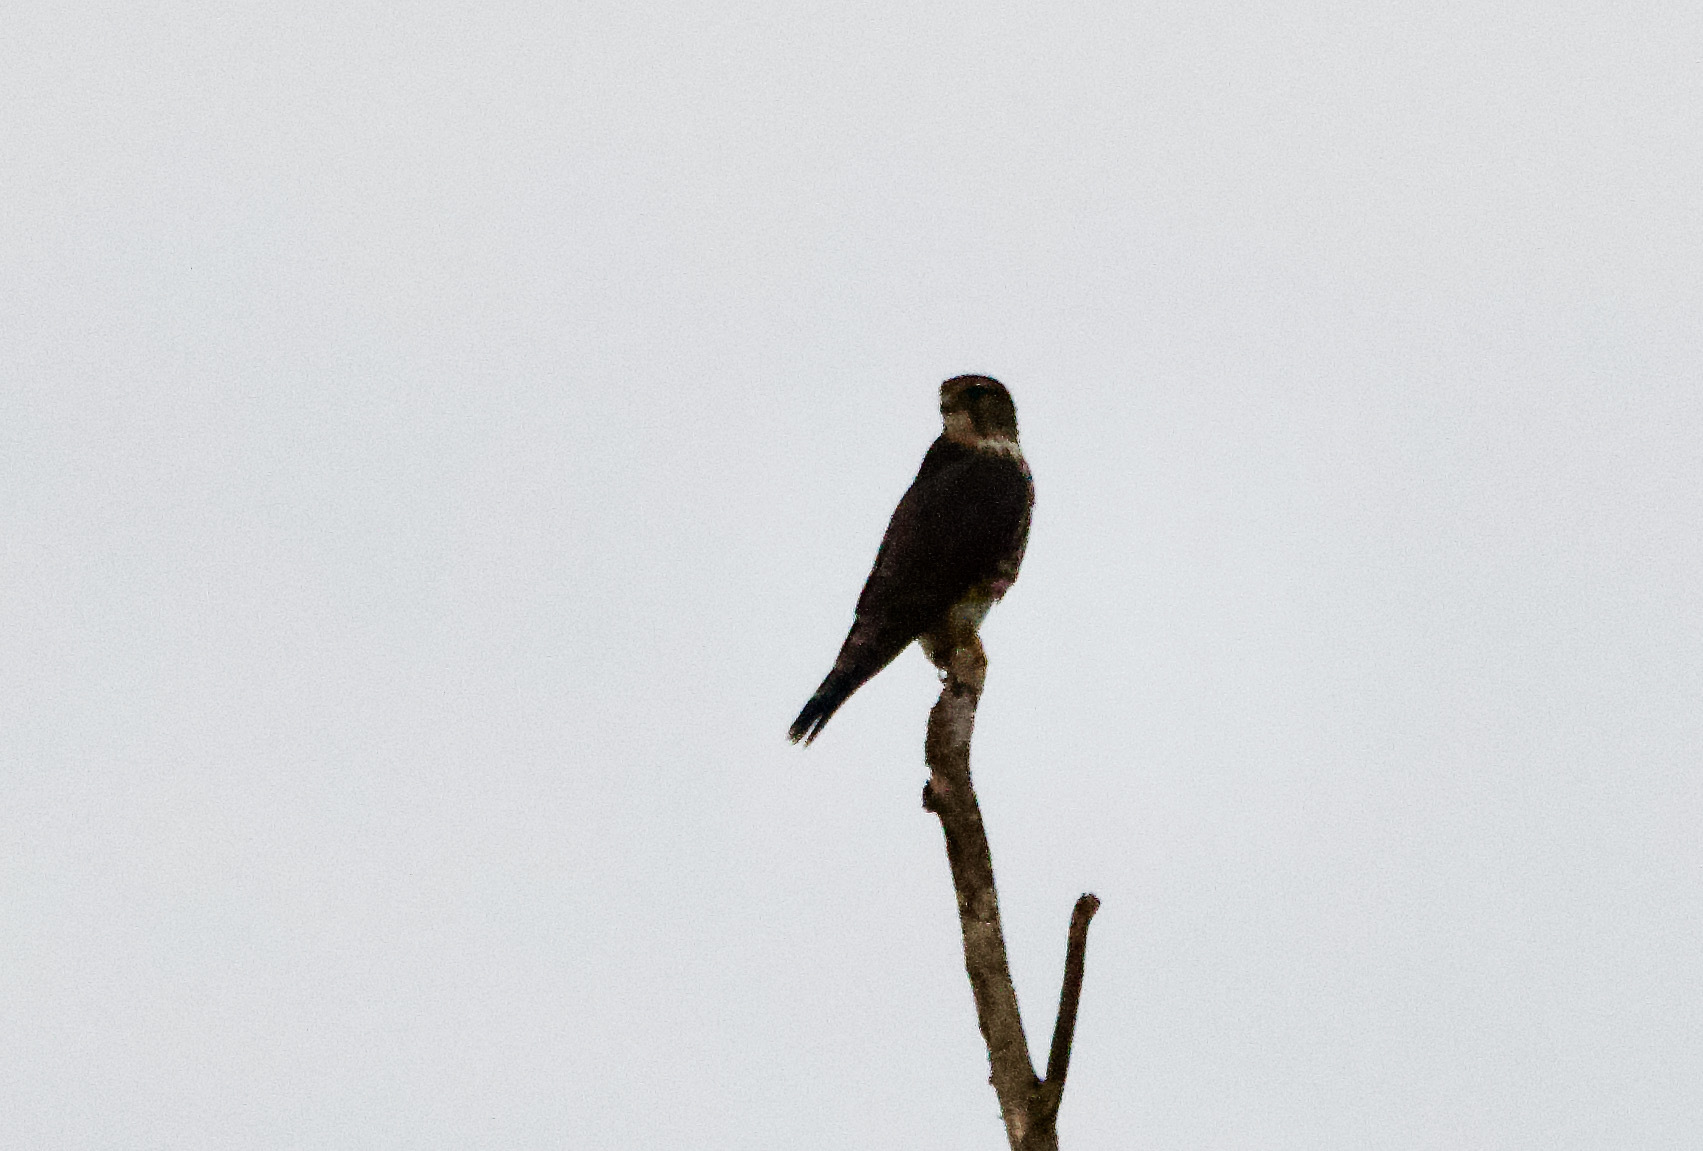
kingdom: Animalia
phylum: Chordata
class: Aves
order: Falconiformes
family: Falconidae
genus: Falco
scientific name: Falco columbarius
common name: Merlin
